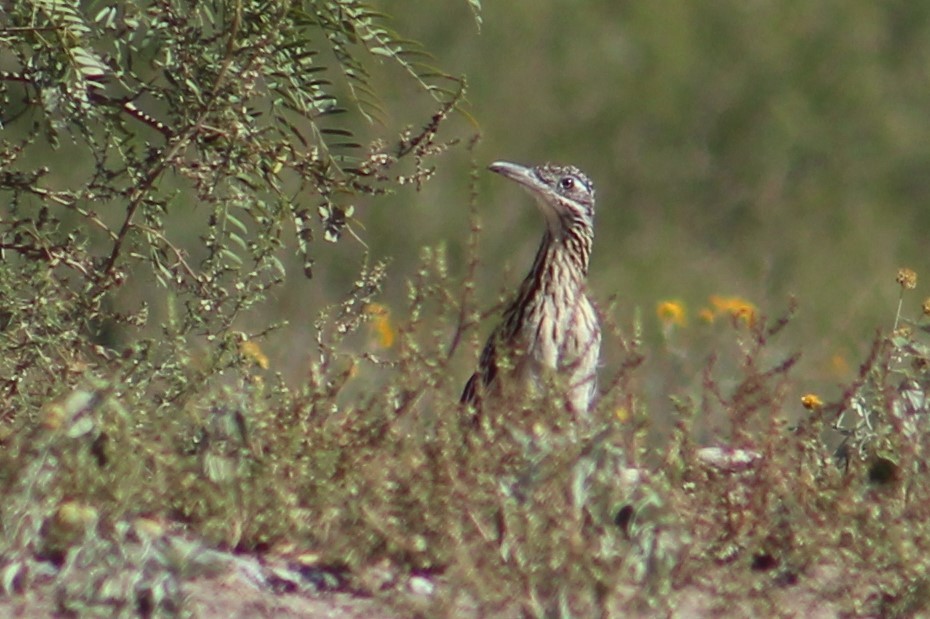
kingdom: Animalia
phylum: Chordata
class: Aves
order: Cuculiformes
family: Cuculidae
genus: Geococcyx
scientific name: Geococcyx californianus
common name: Greater roadrunner
